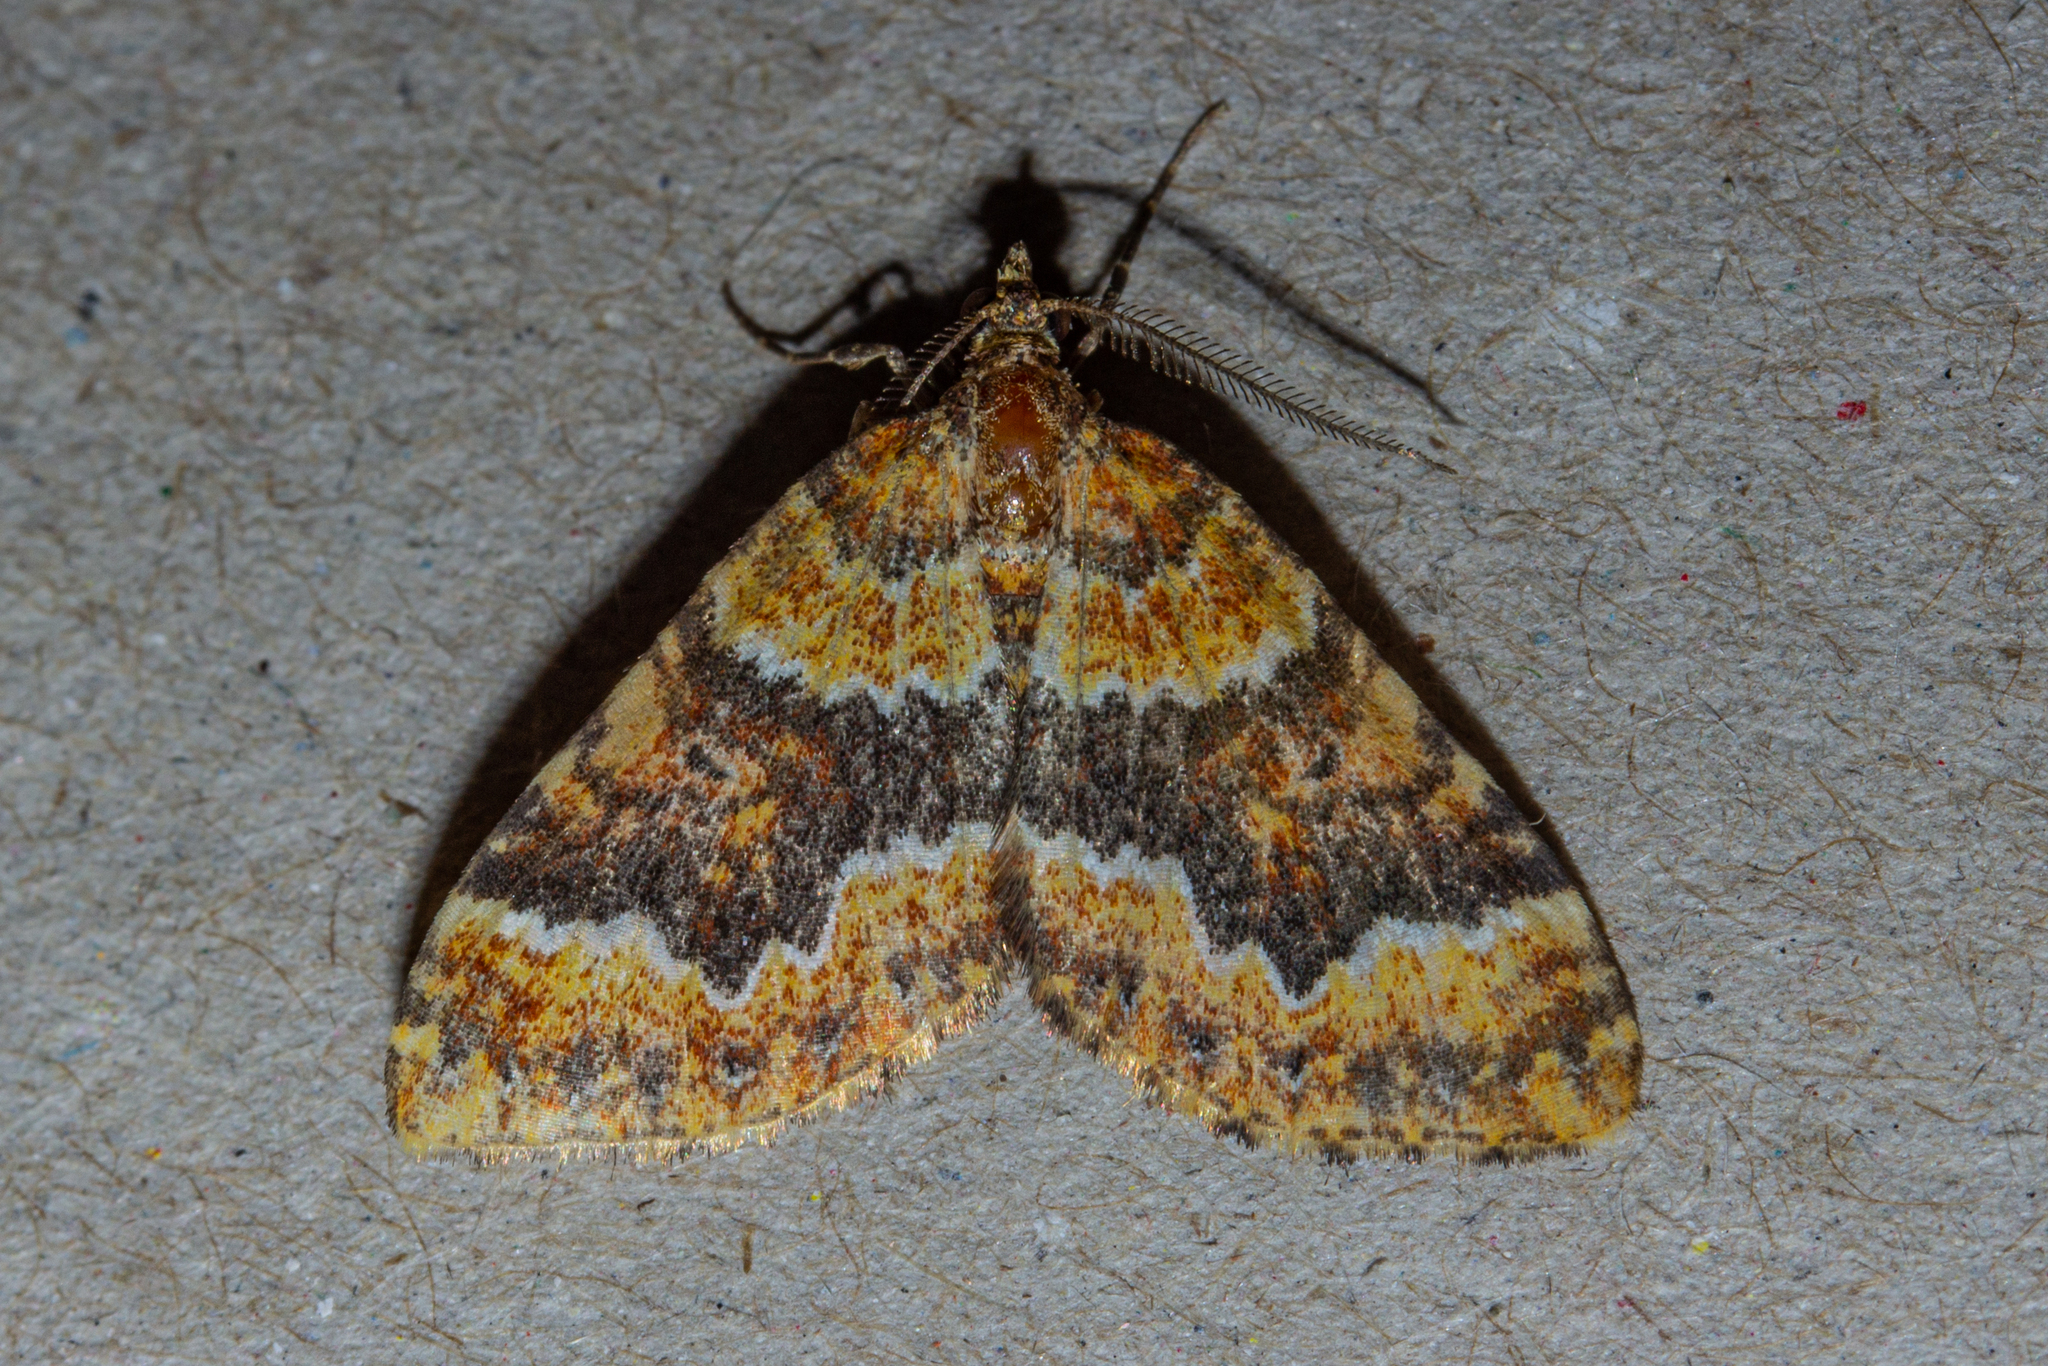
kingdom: Animalia
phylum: Arthropoda
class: Insecta
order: Lepidoptera
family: Geometridae
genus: Asaphodes
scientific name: Asaphodes prasinias
